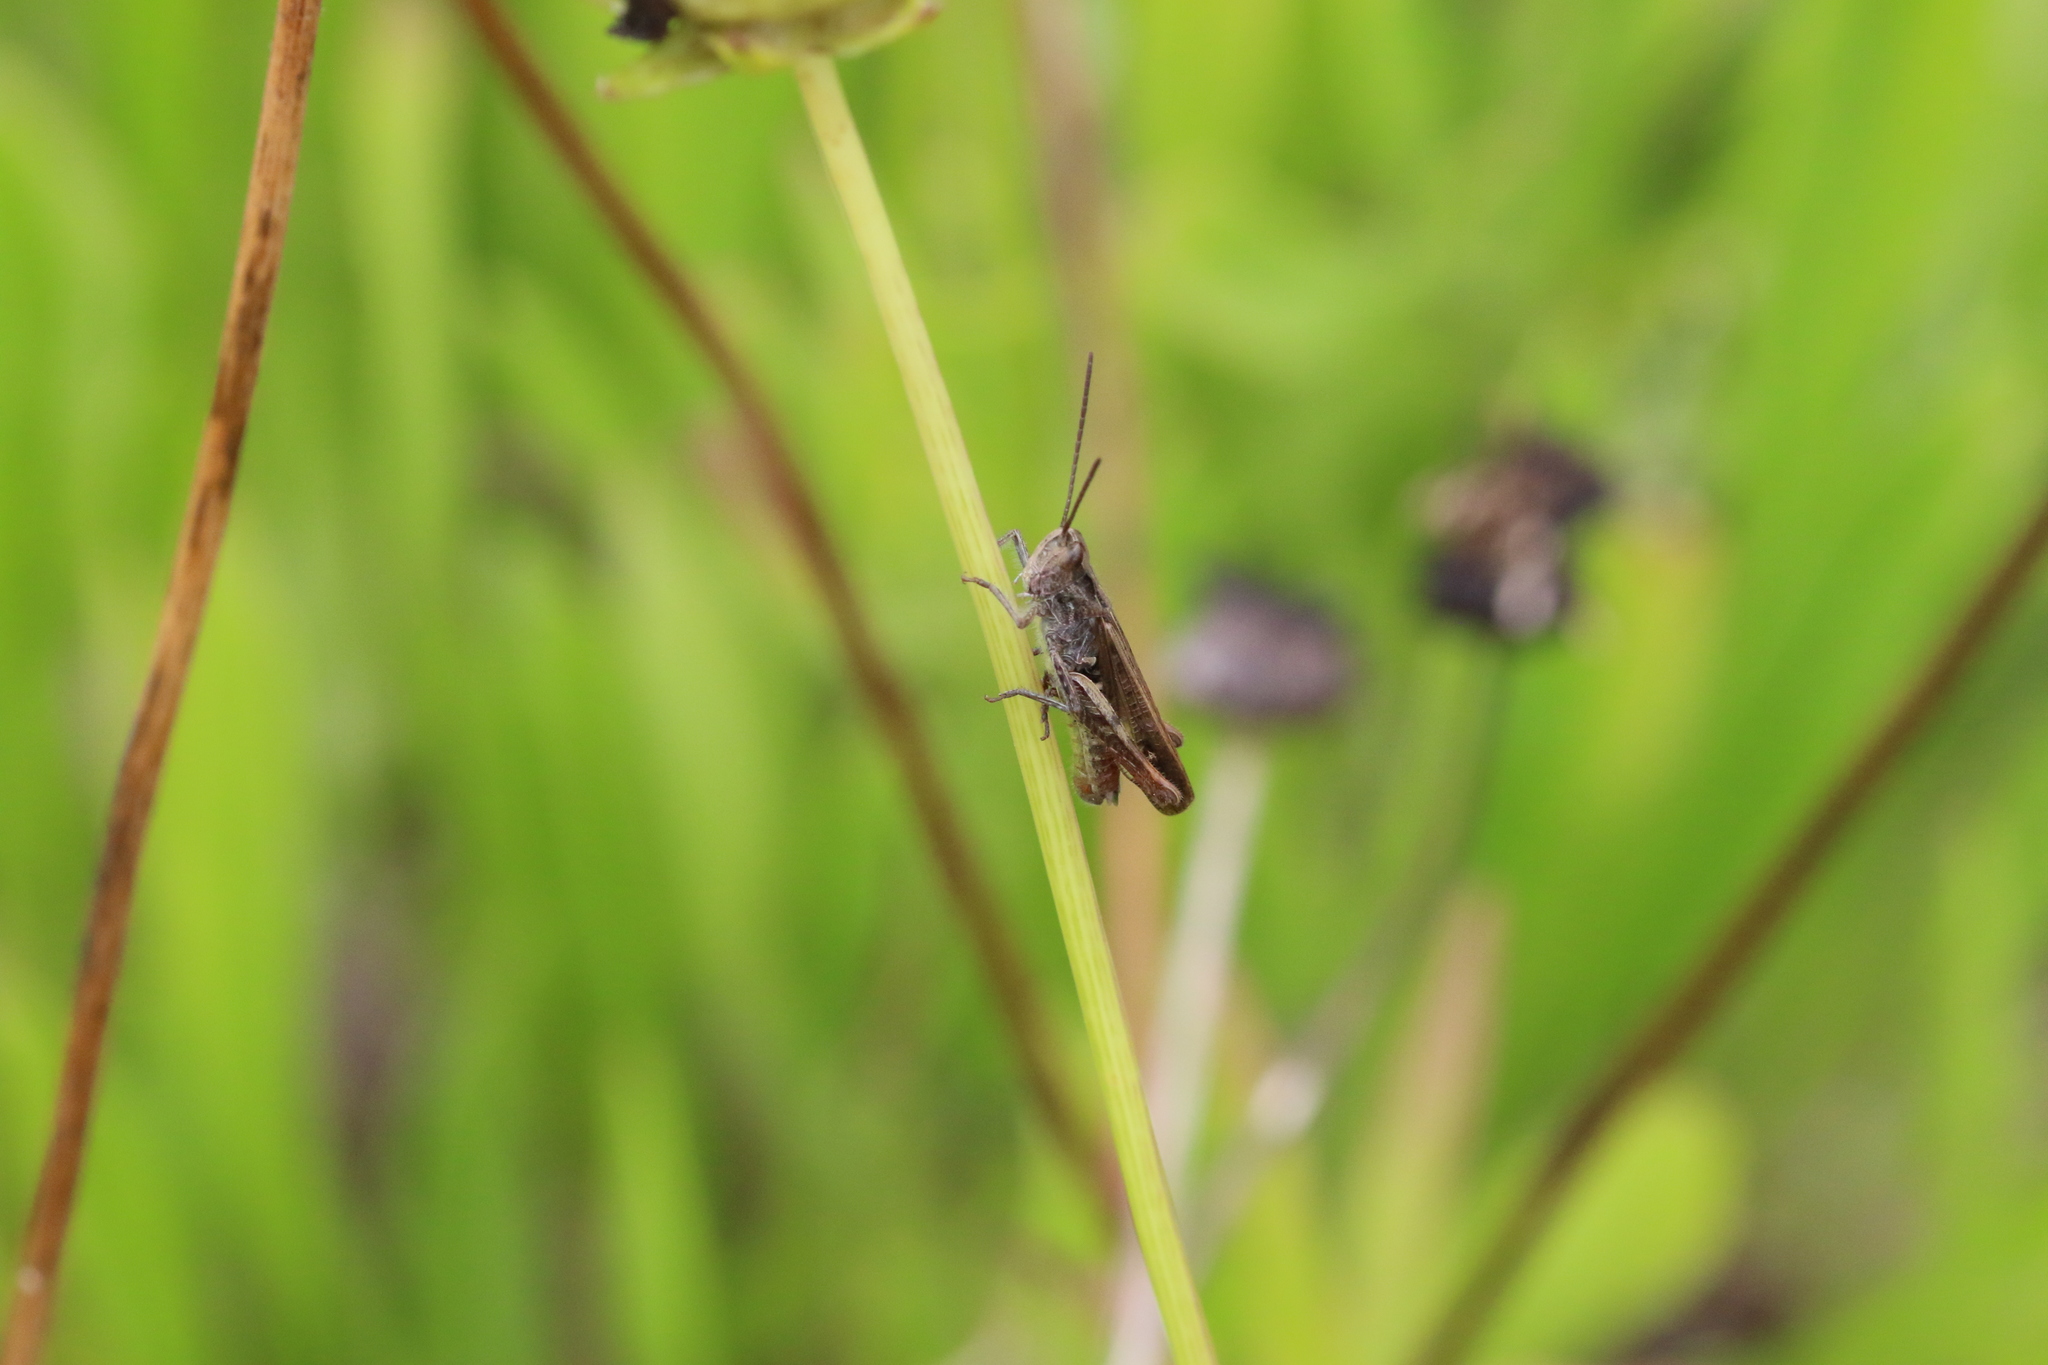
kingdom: Animalia
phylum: Arthropoda
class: Insecta
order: Orthoptera
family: Acrididae
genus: Chorthippus
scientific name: Chorthippus biguttulus
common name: Bow-winged grasshopper
